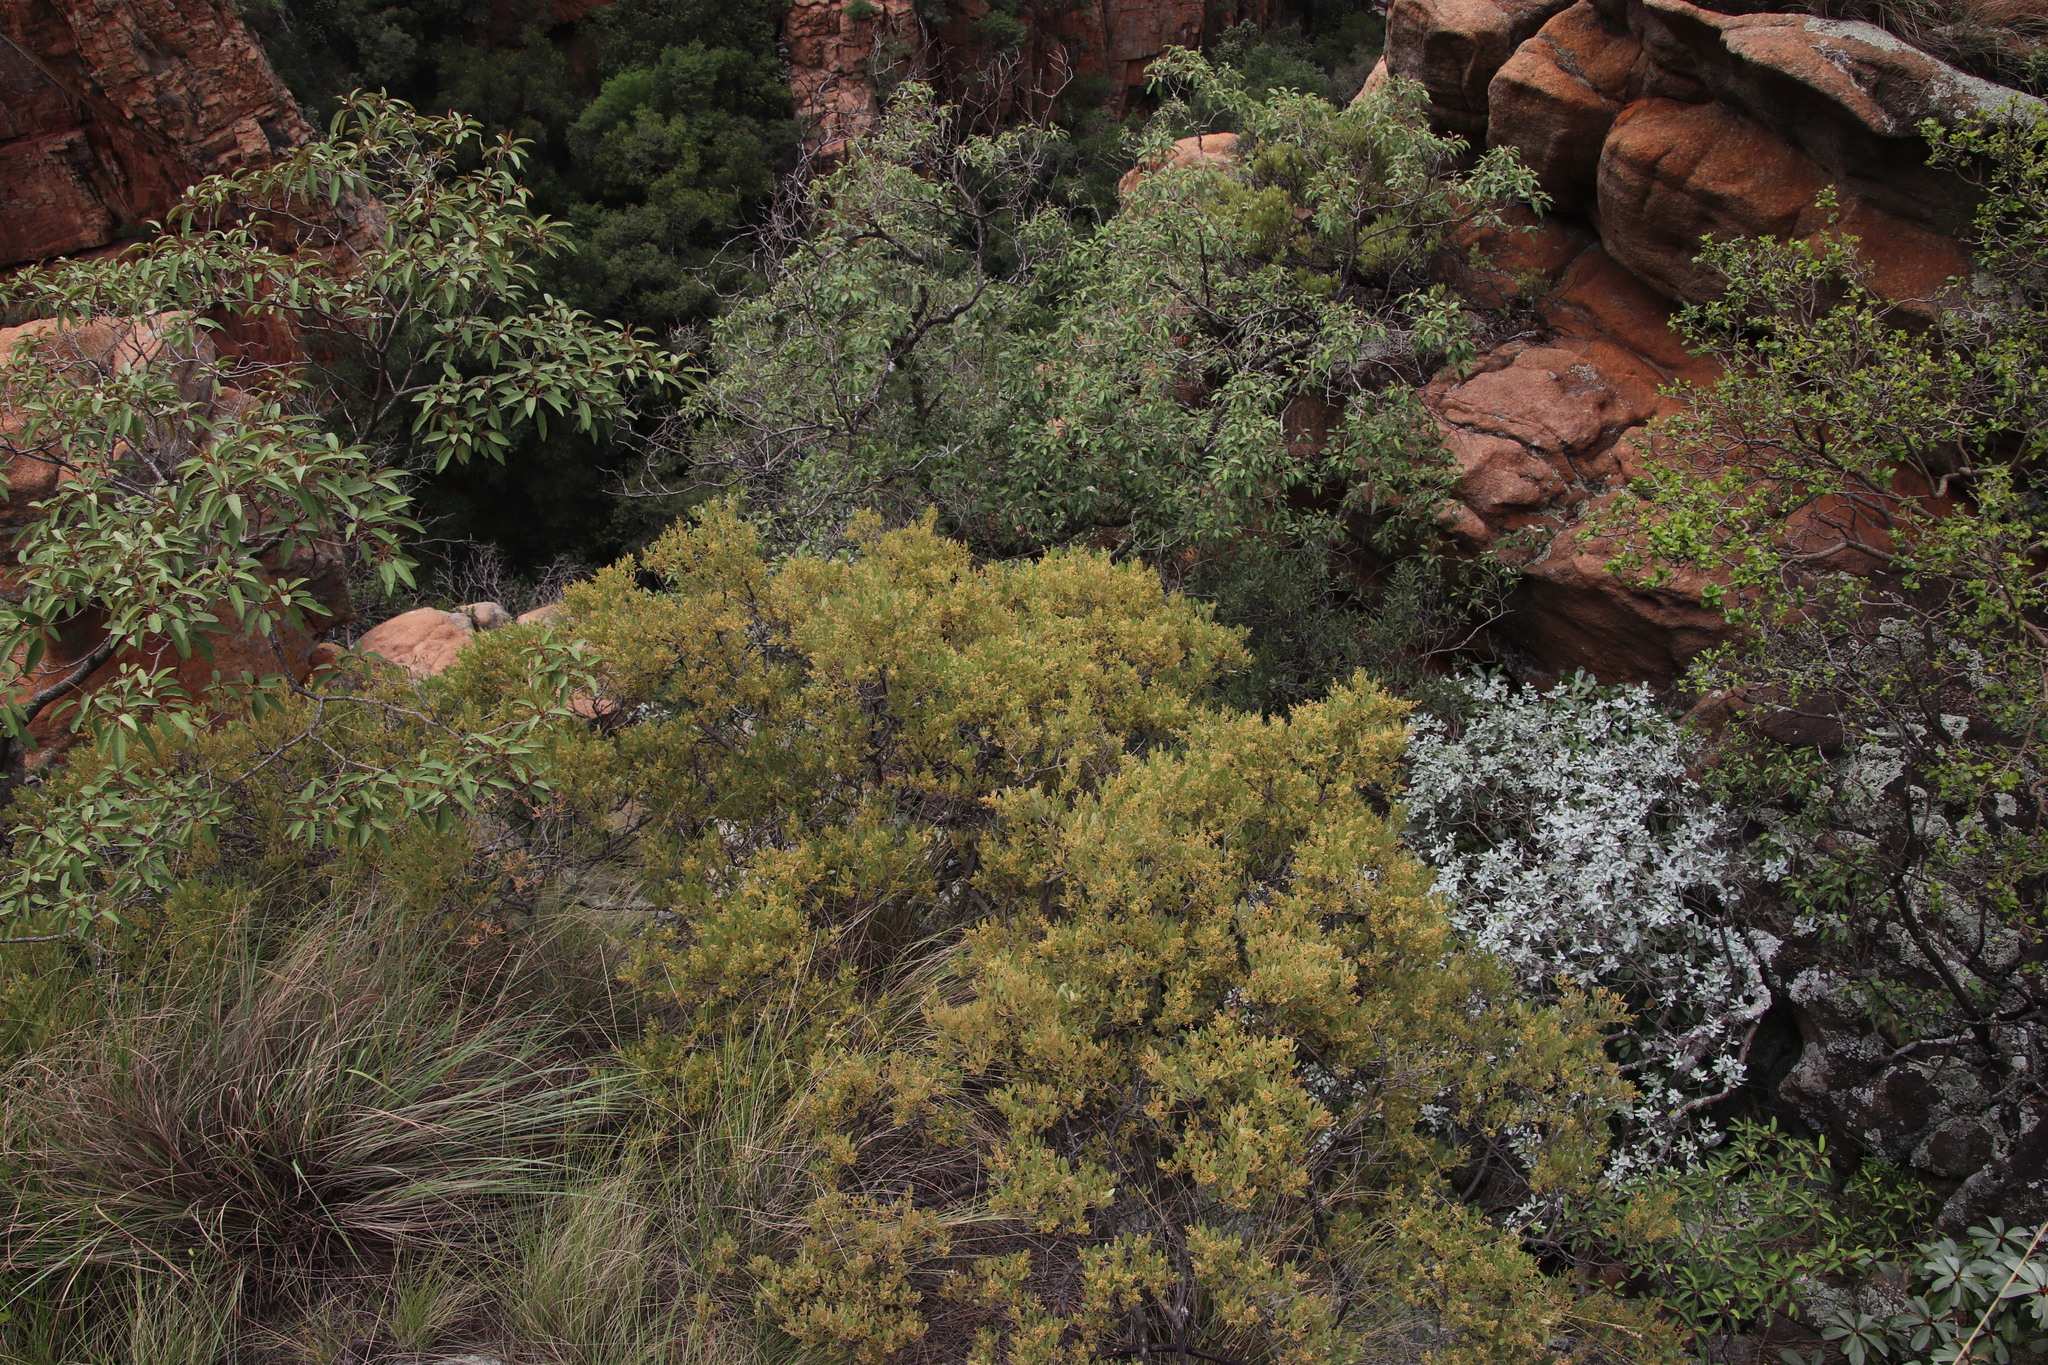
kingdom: Plantae
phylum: Tracheophyta
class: Magnoliopsida
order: Sapindales
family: Anacardiaceae
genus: Searsia
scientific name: Searsia magalismontana
